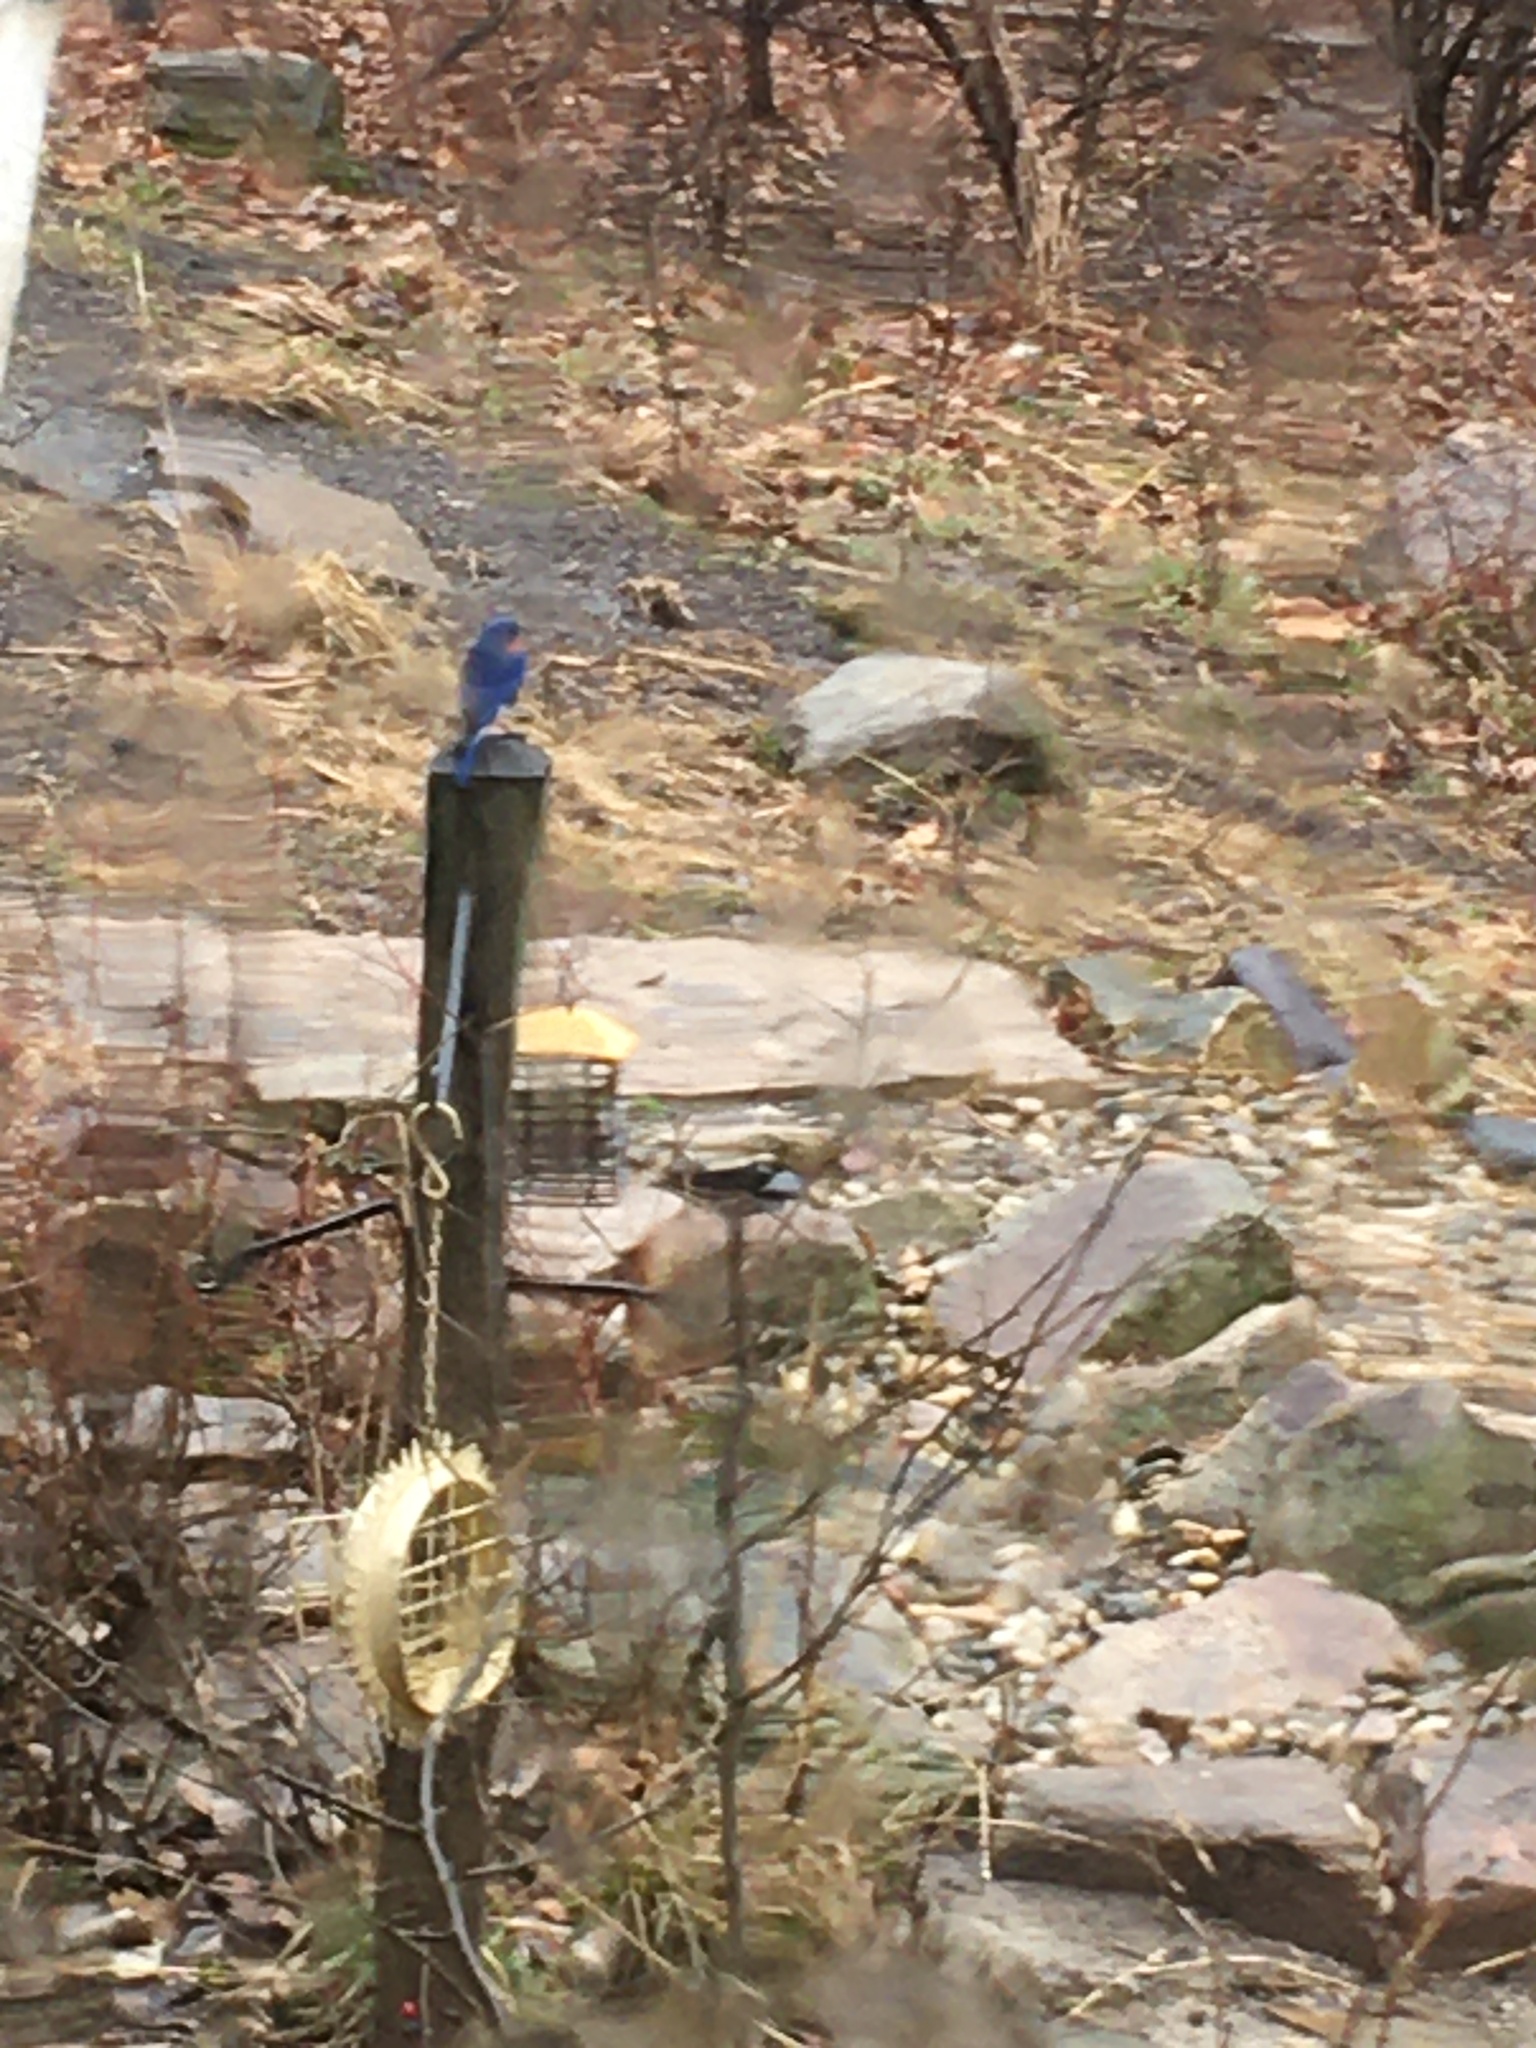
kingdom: Animalia
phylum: Chordata
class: Aves
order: Passeriformes
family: Turdidae
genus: Sialia
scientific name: Sialia sialis
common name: Eastern bluebird
